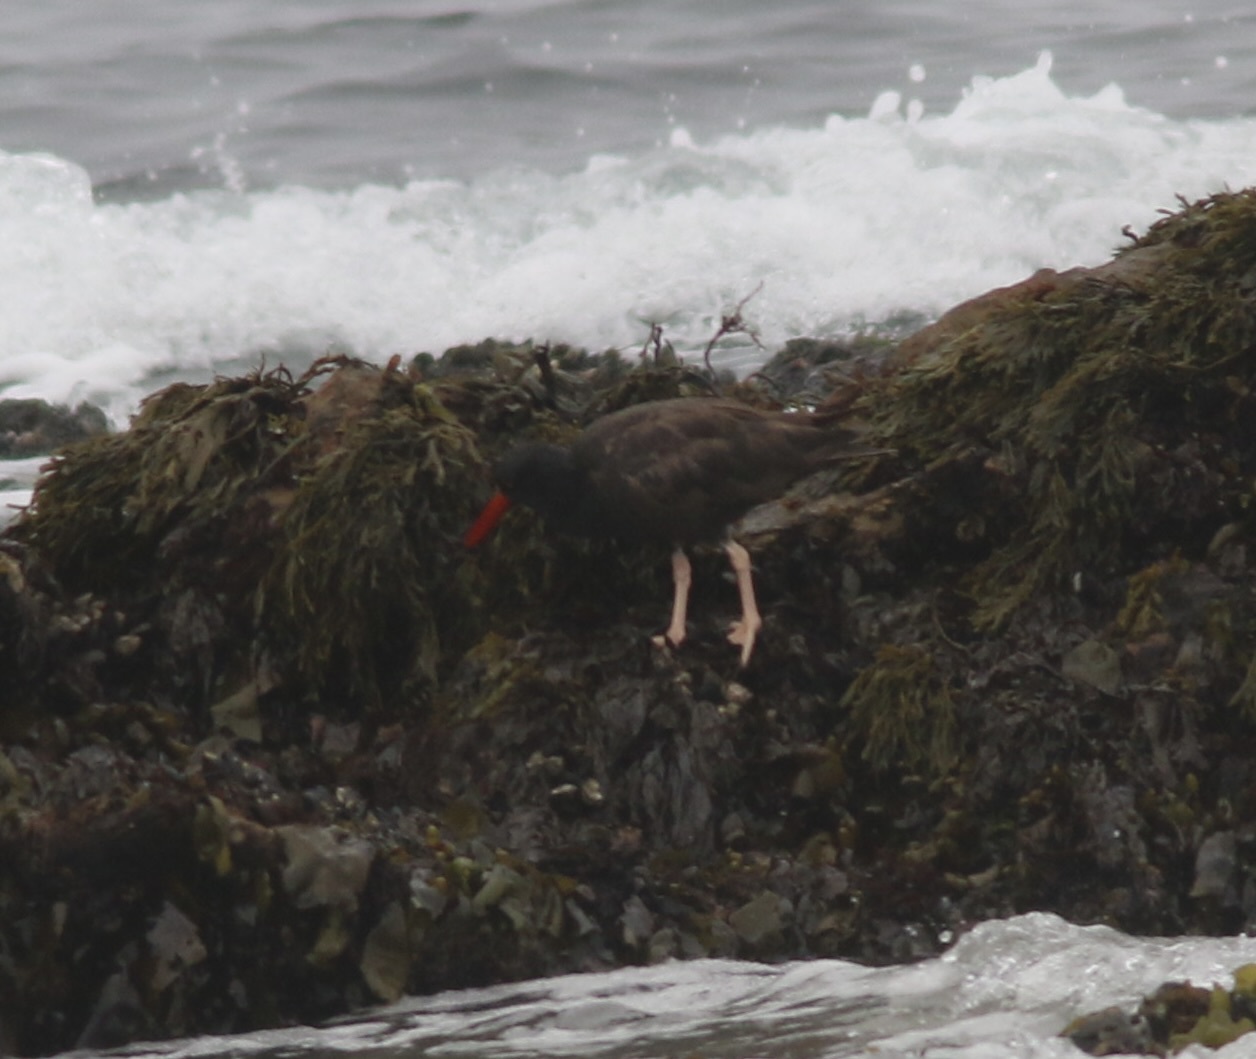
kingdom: Animalia
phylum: Chordata
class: Aves
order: Charadriiformes
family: Haematopodidae
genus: Haematopus
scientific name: Haematopus bachmani
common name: Black oystercatcher
